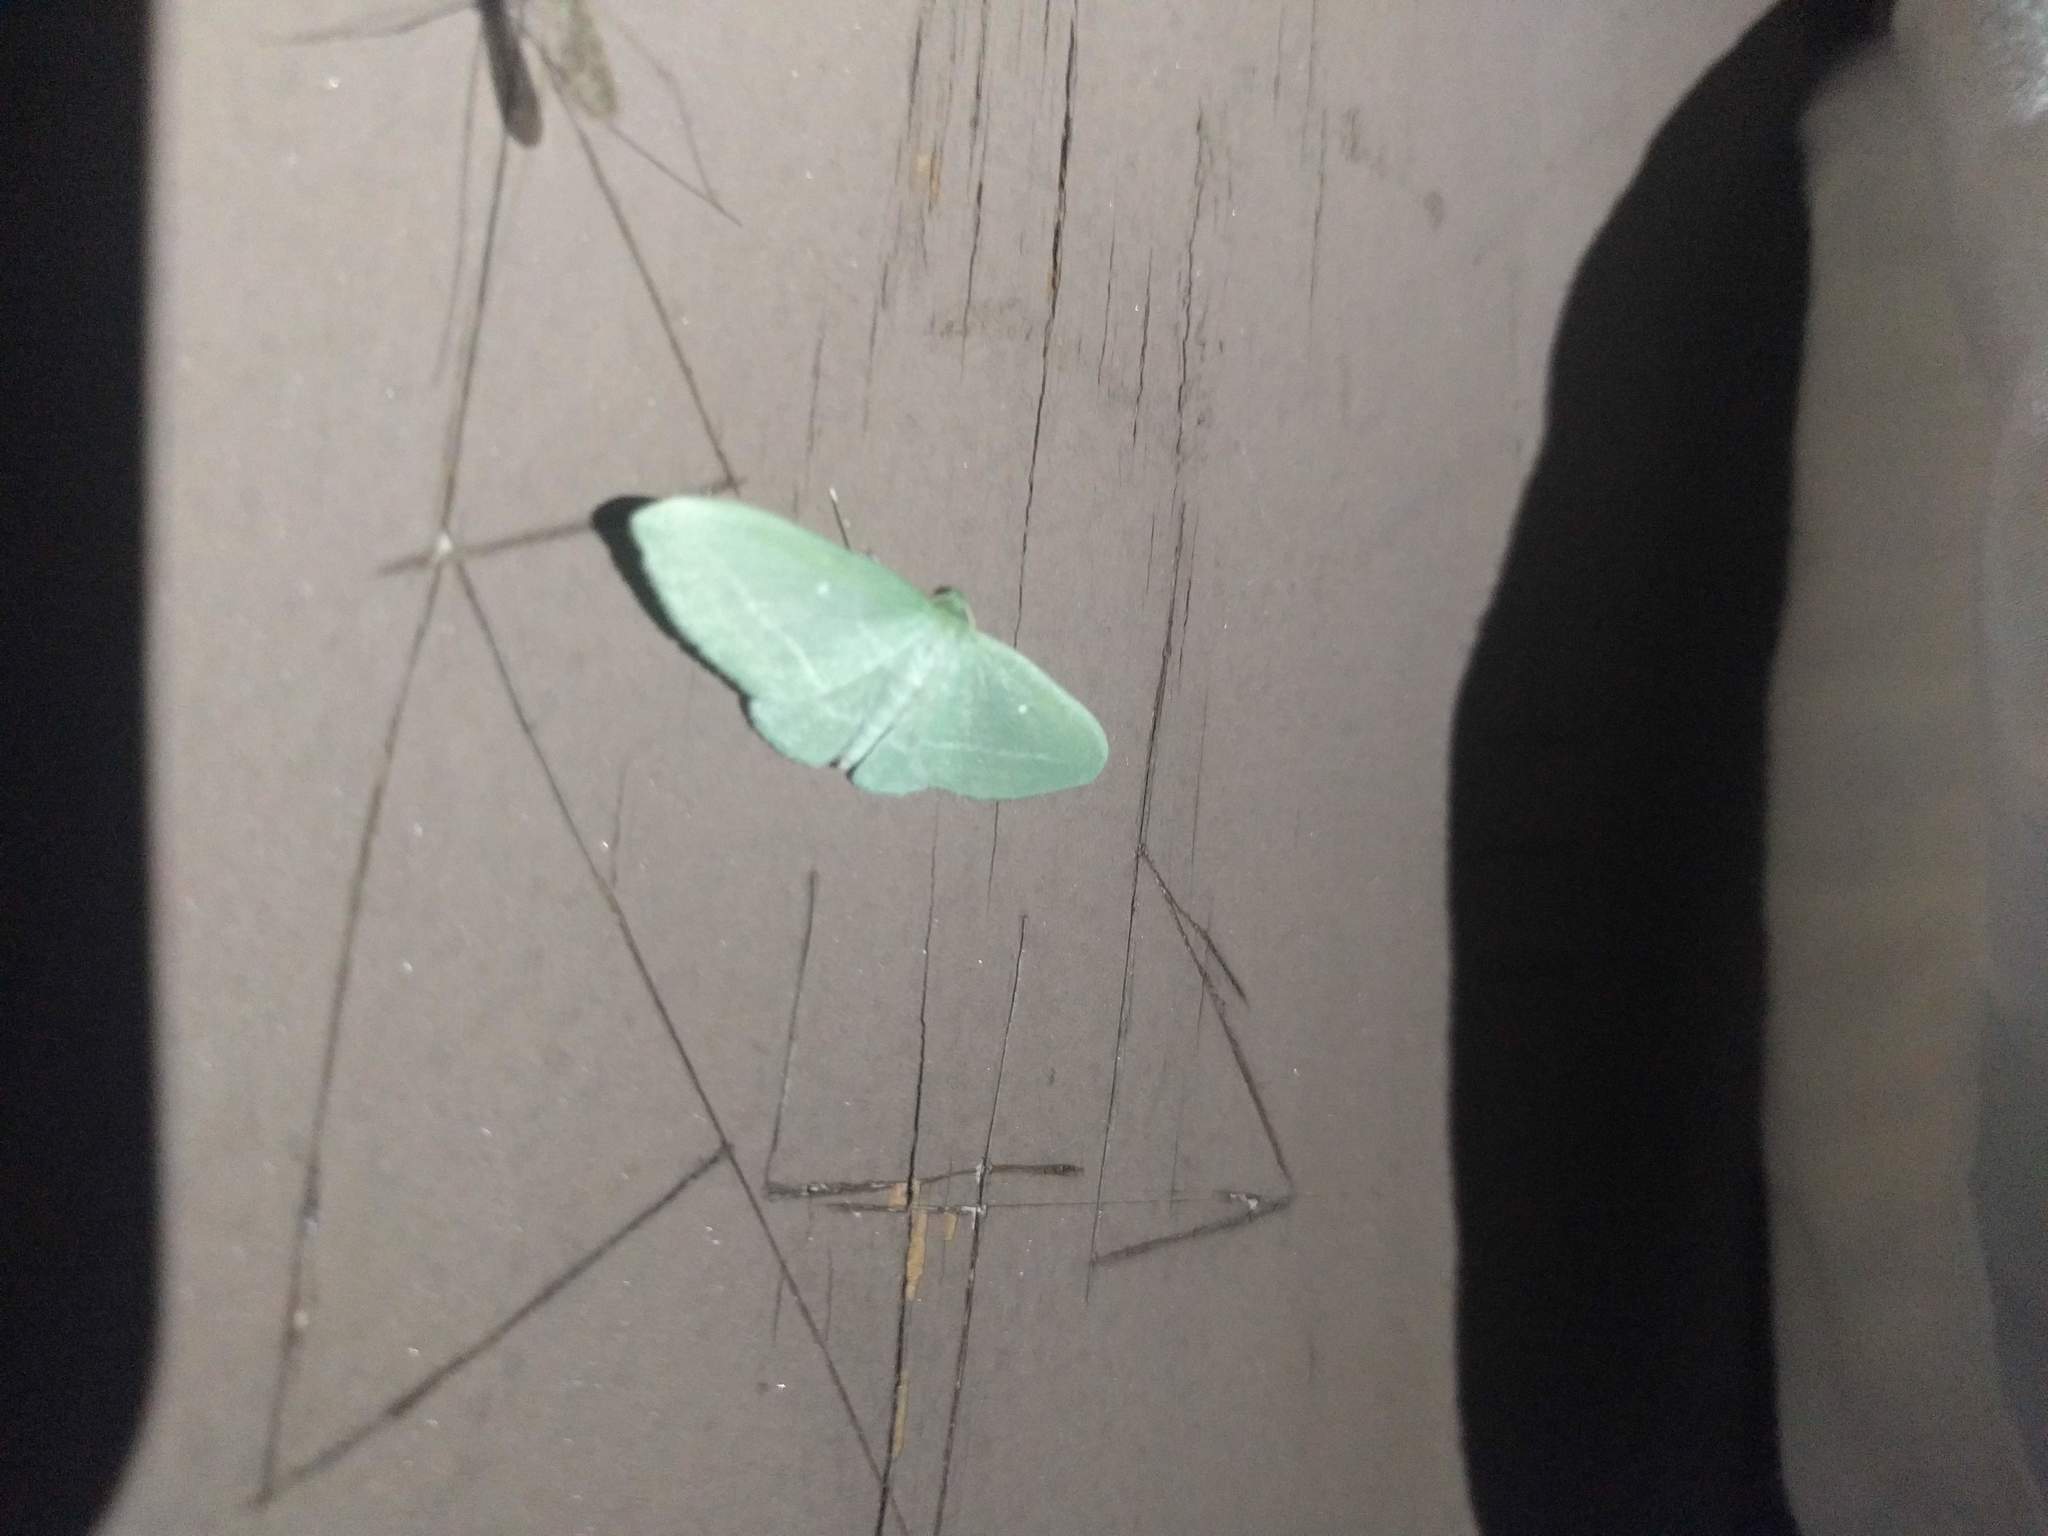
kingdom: Animalia
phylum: Arthropoda
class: Insecta
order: Lepidoptera
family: Geometridae
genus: Dyspteris
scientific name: Dyspteris abortivaria
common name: Bad-wing
